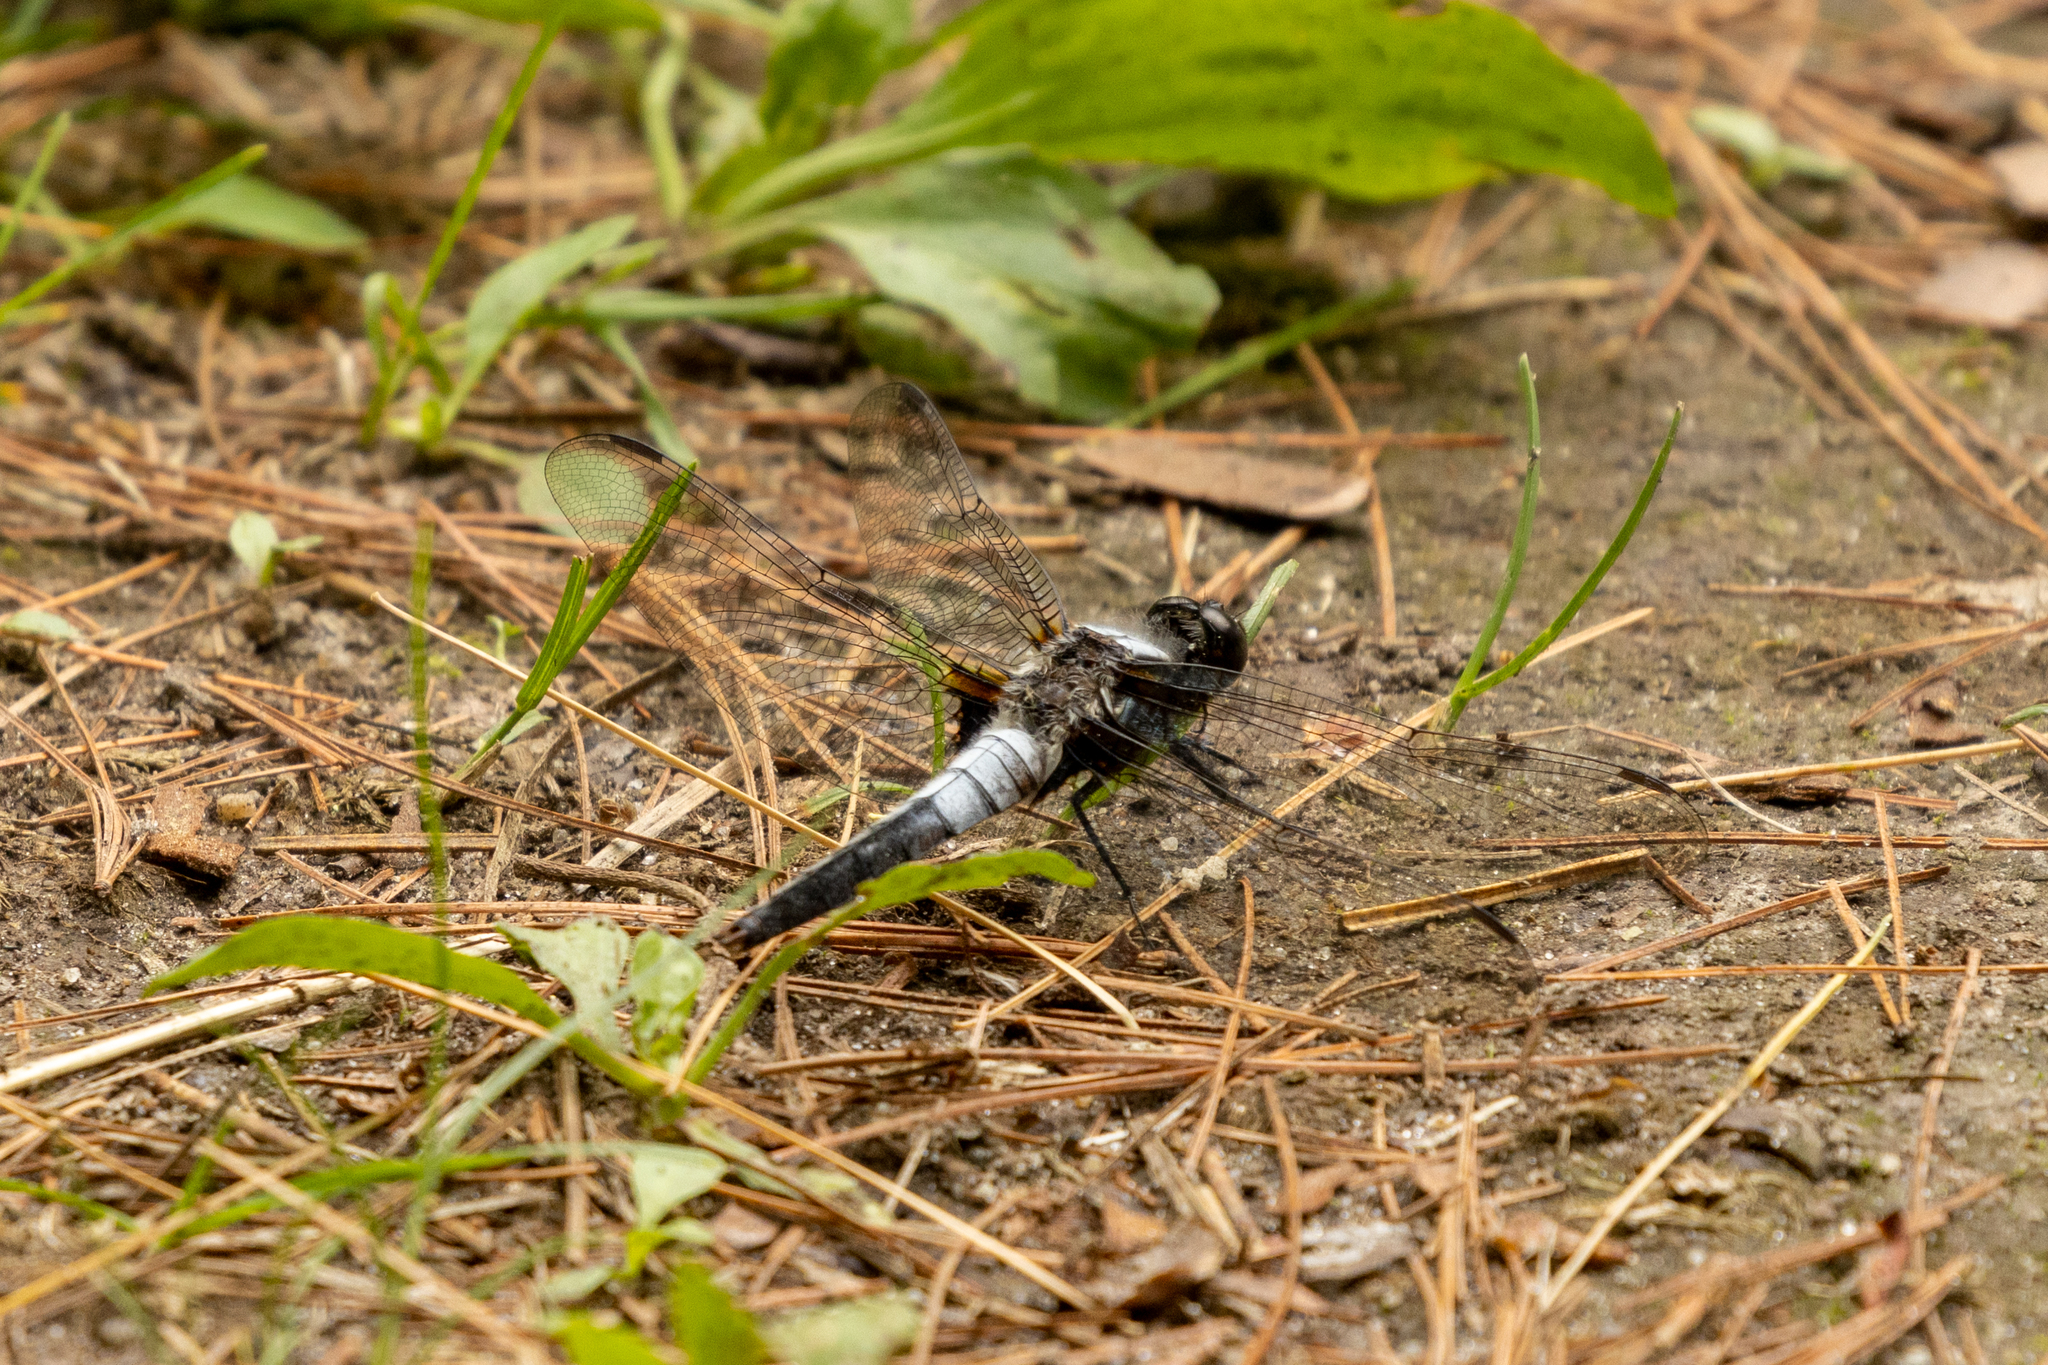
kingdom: Animalia
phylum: Arthropoda
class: Insecta
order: Odonata
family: Libellulidae
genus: Ladona
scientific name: Ladona julia
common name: Chalk-fronted corporal
